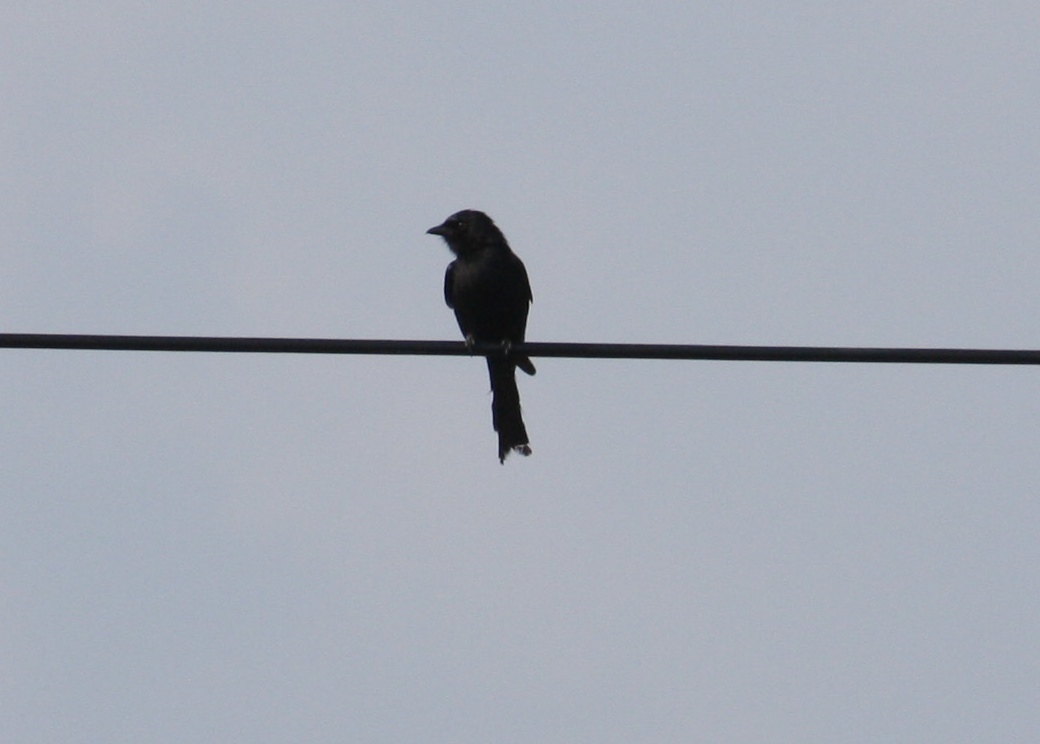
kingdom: Animalia
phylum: Chordata
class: Aves
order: Passeriformes
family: Muscicapidae
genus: Melaenornis
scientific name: Melaenornis pammelaina
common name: Southern black flycatcher
